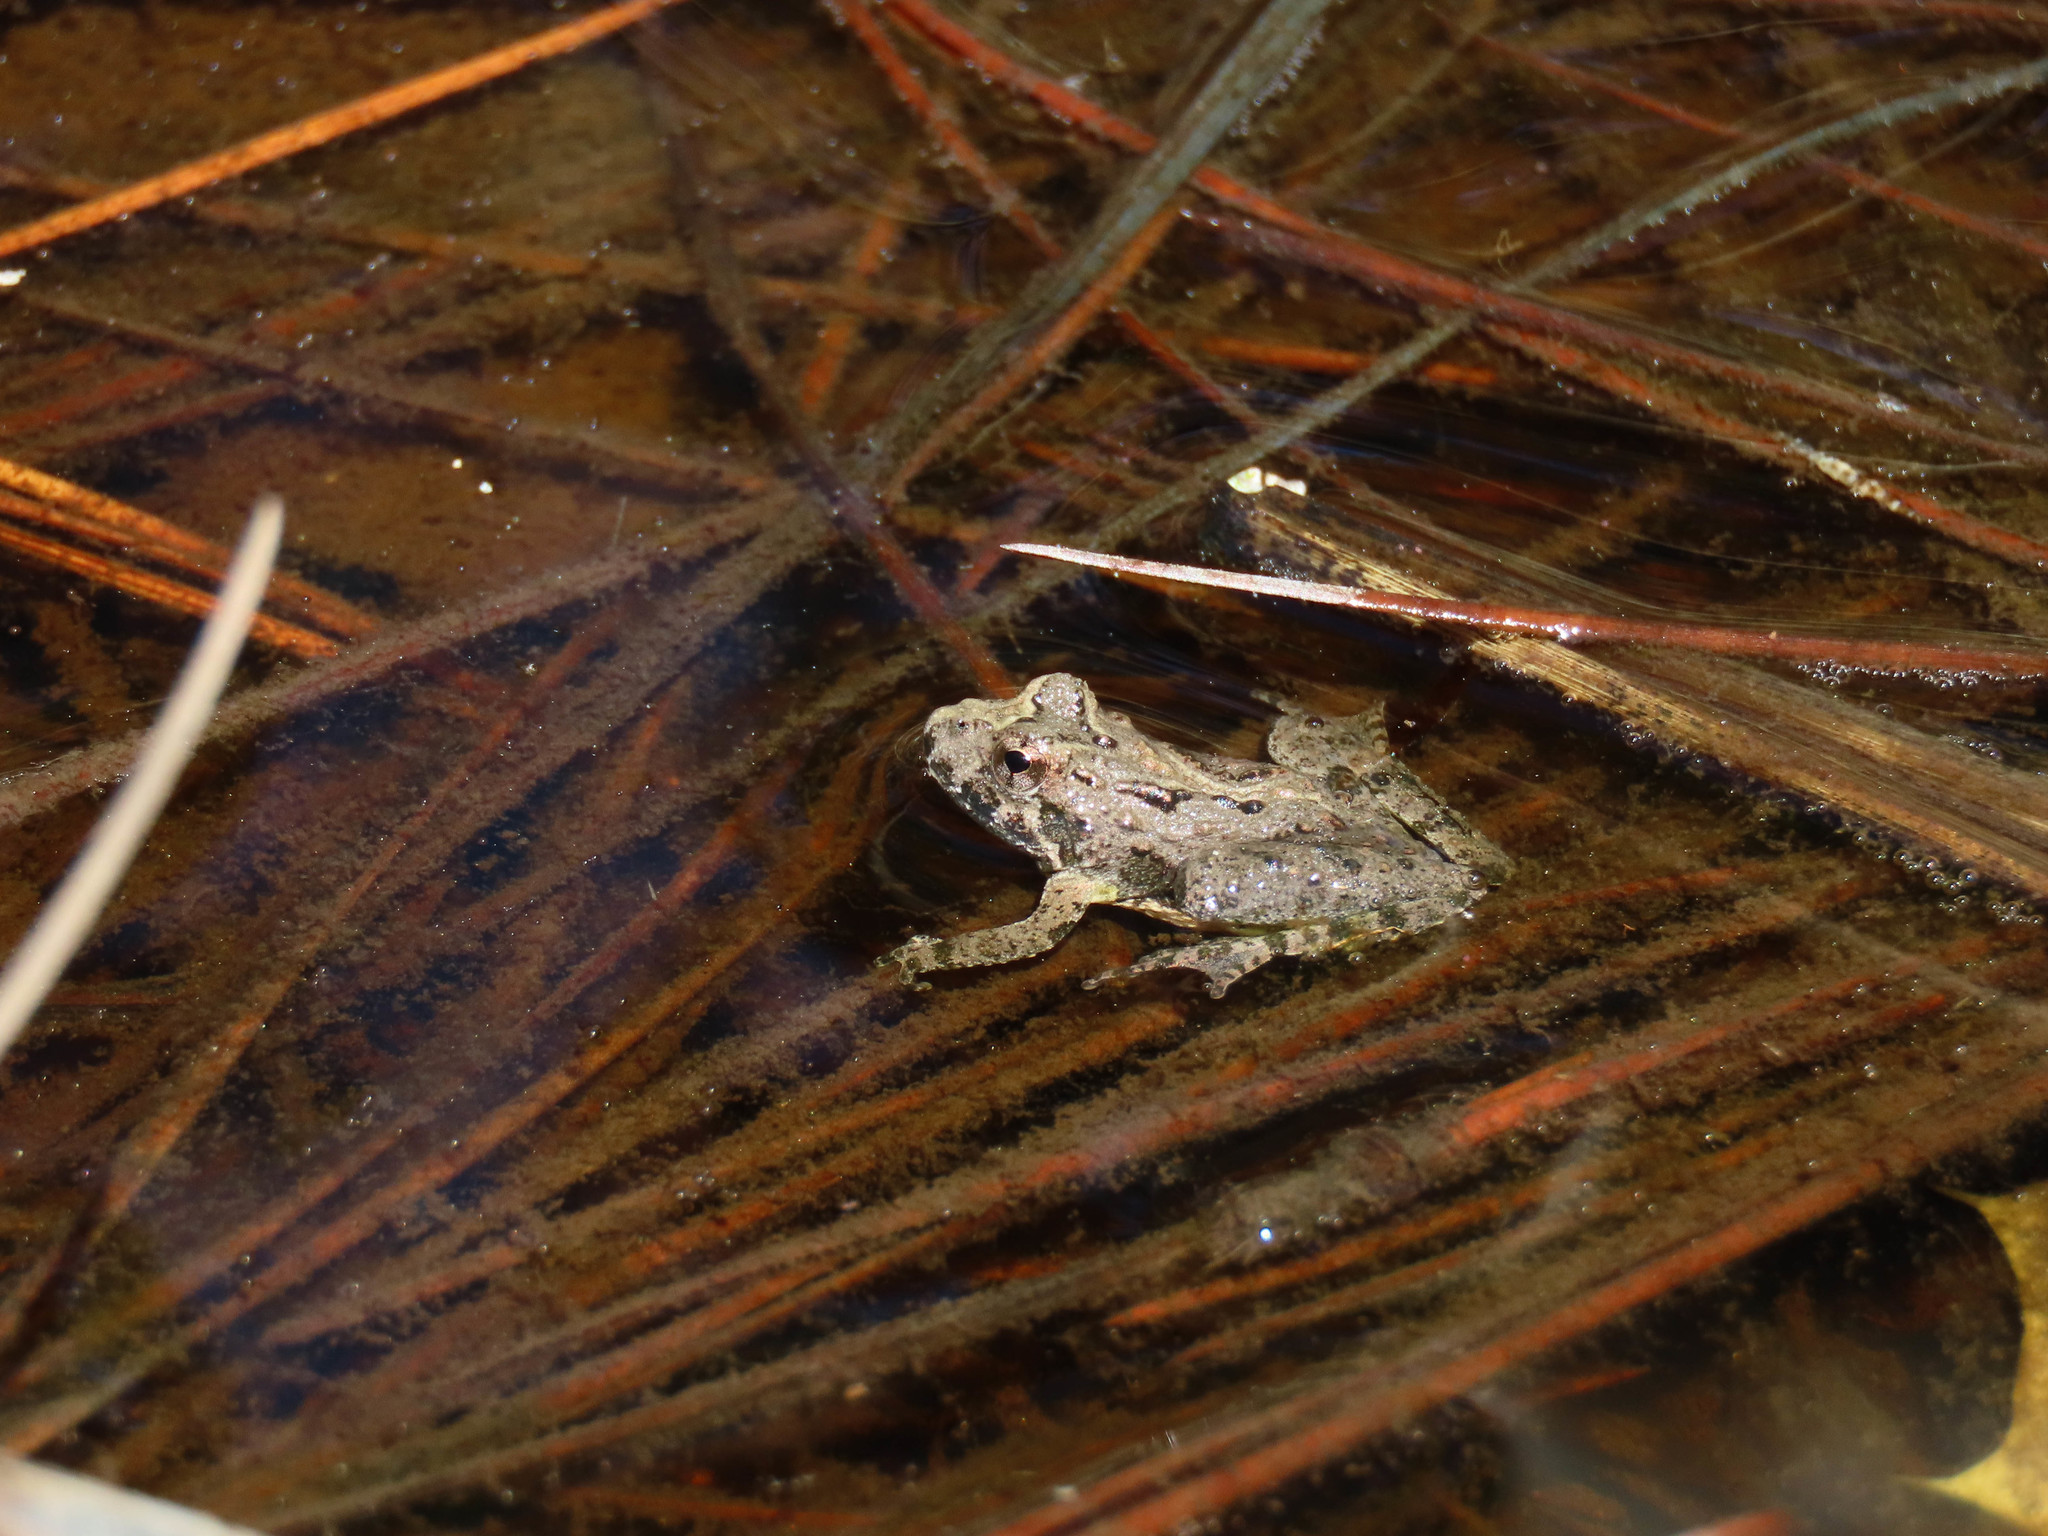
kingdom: Animalia
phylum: Chordata
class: Amphibia
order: Anura
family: Hylidae
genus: Acris
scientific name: Acris crepitans
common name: Northern cricket frog
